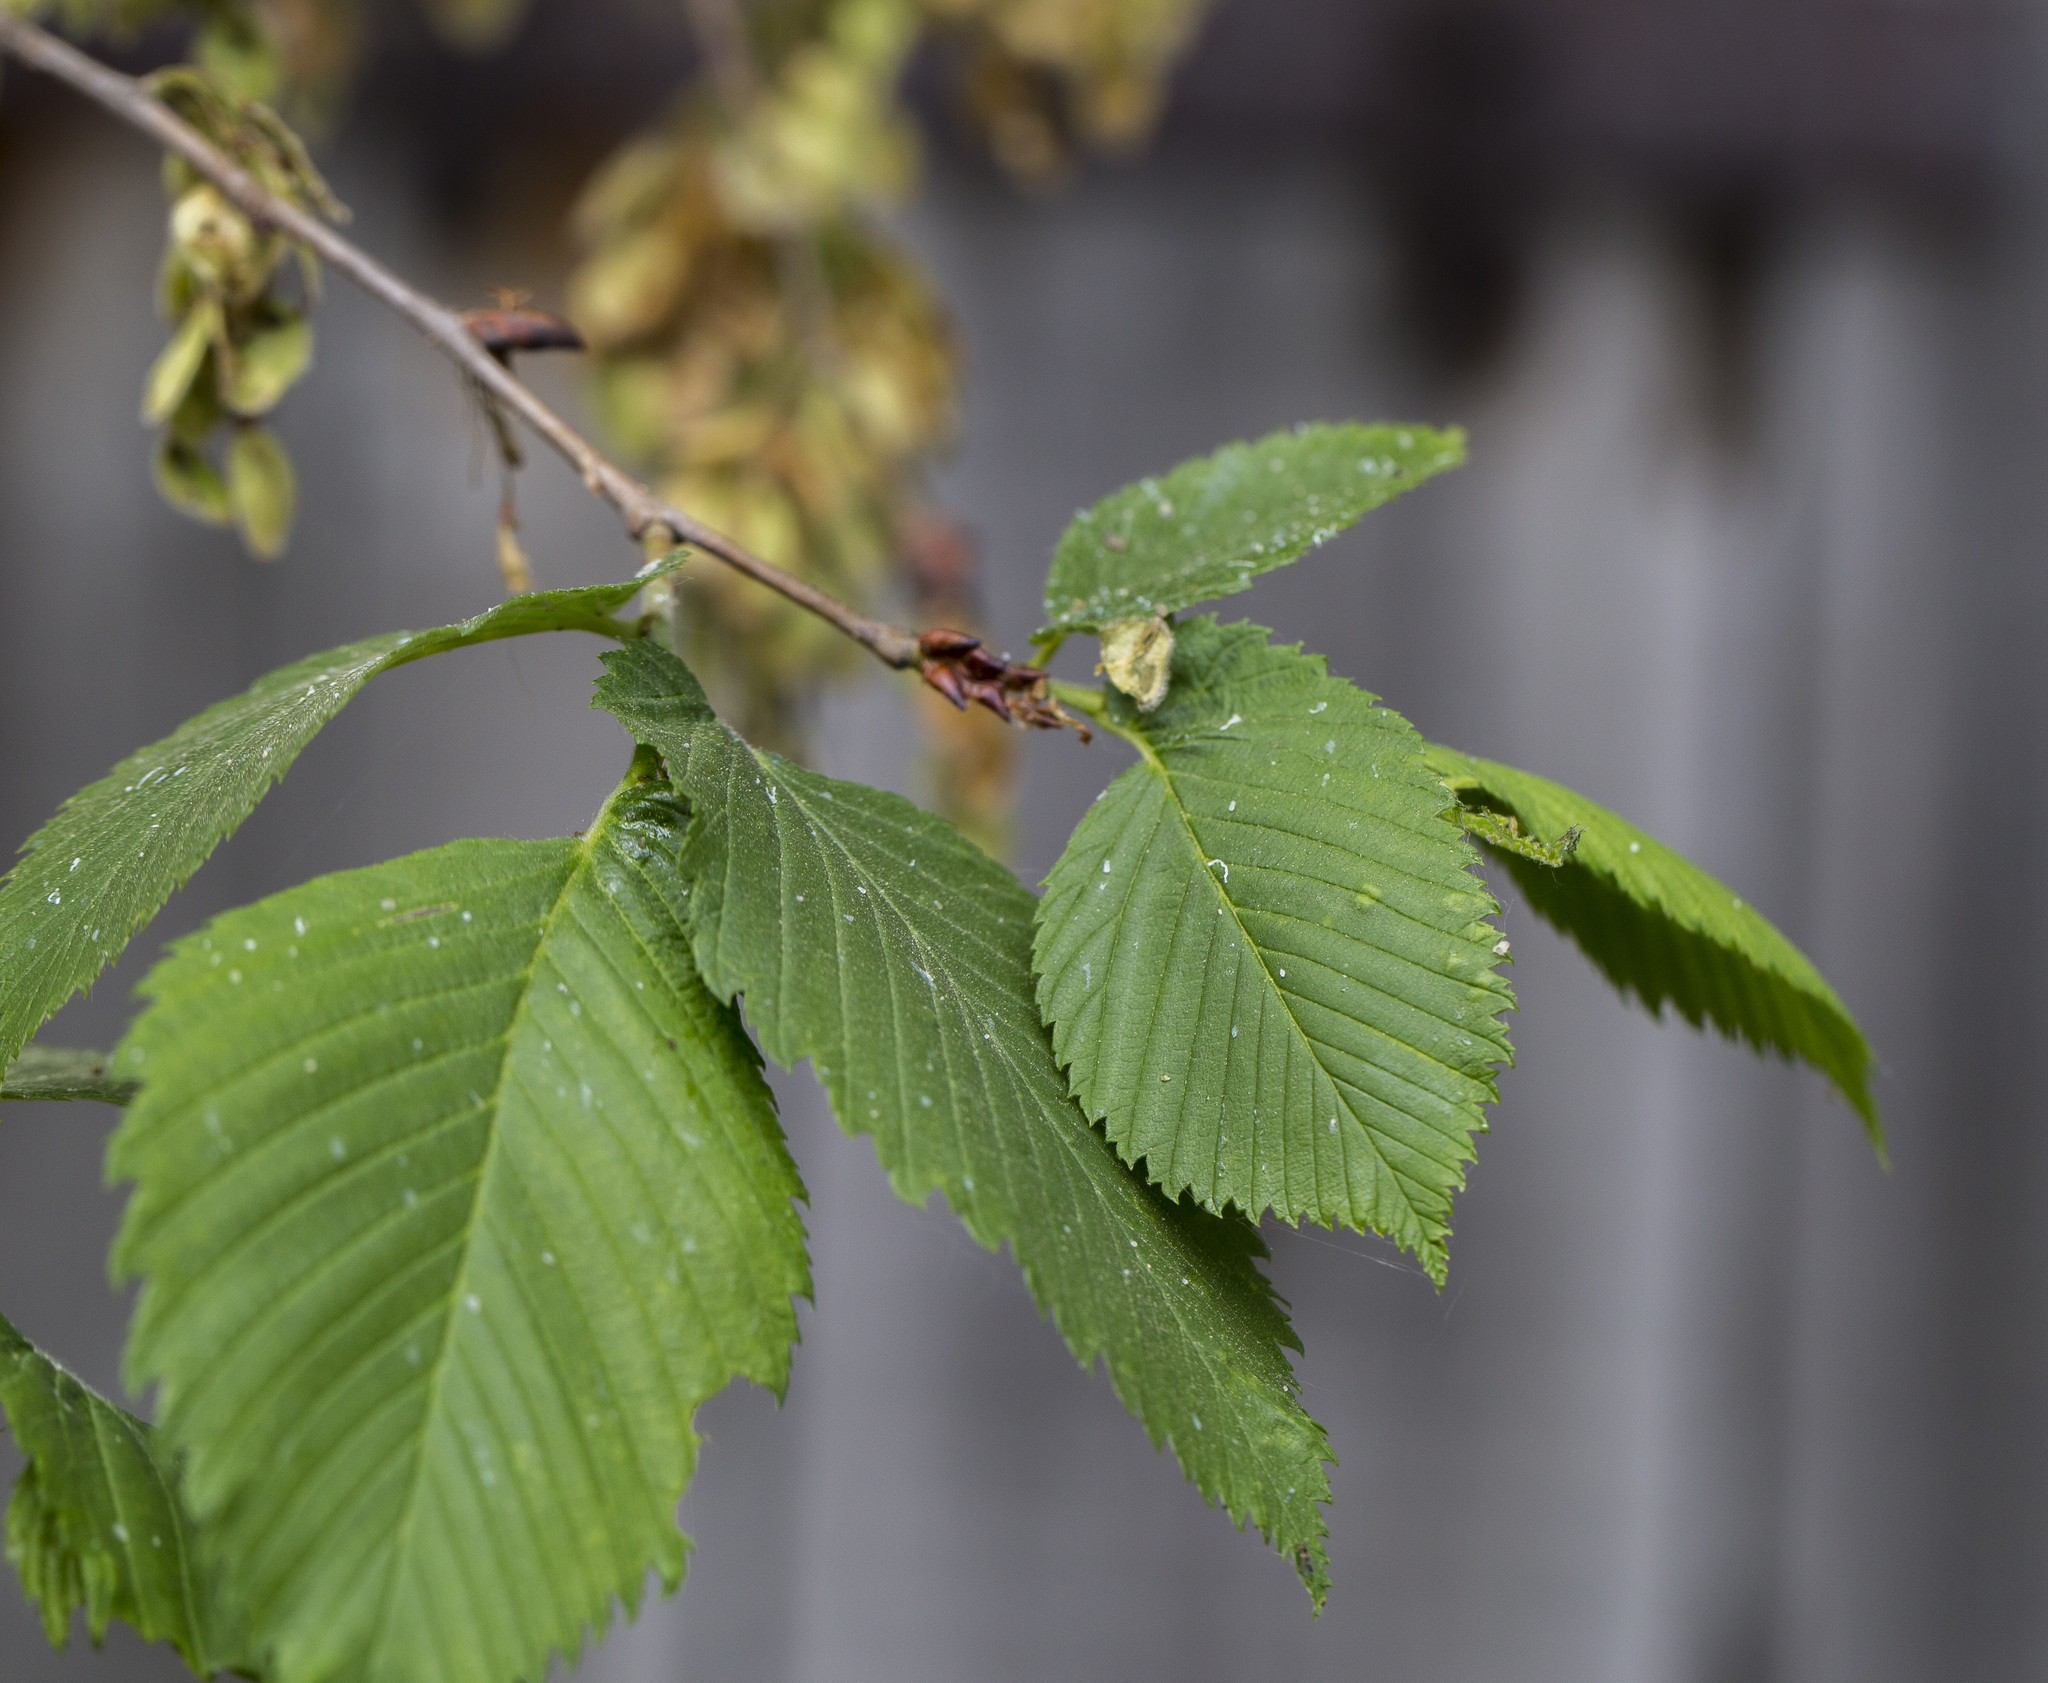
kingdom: Plantae
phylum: Tracheophyta
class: Magnoliopsida
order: Rosales
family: Ulmaceae
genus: Ulmus
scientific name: Ulmus laevis
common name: European white-elm
